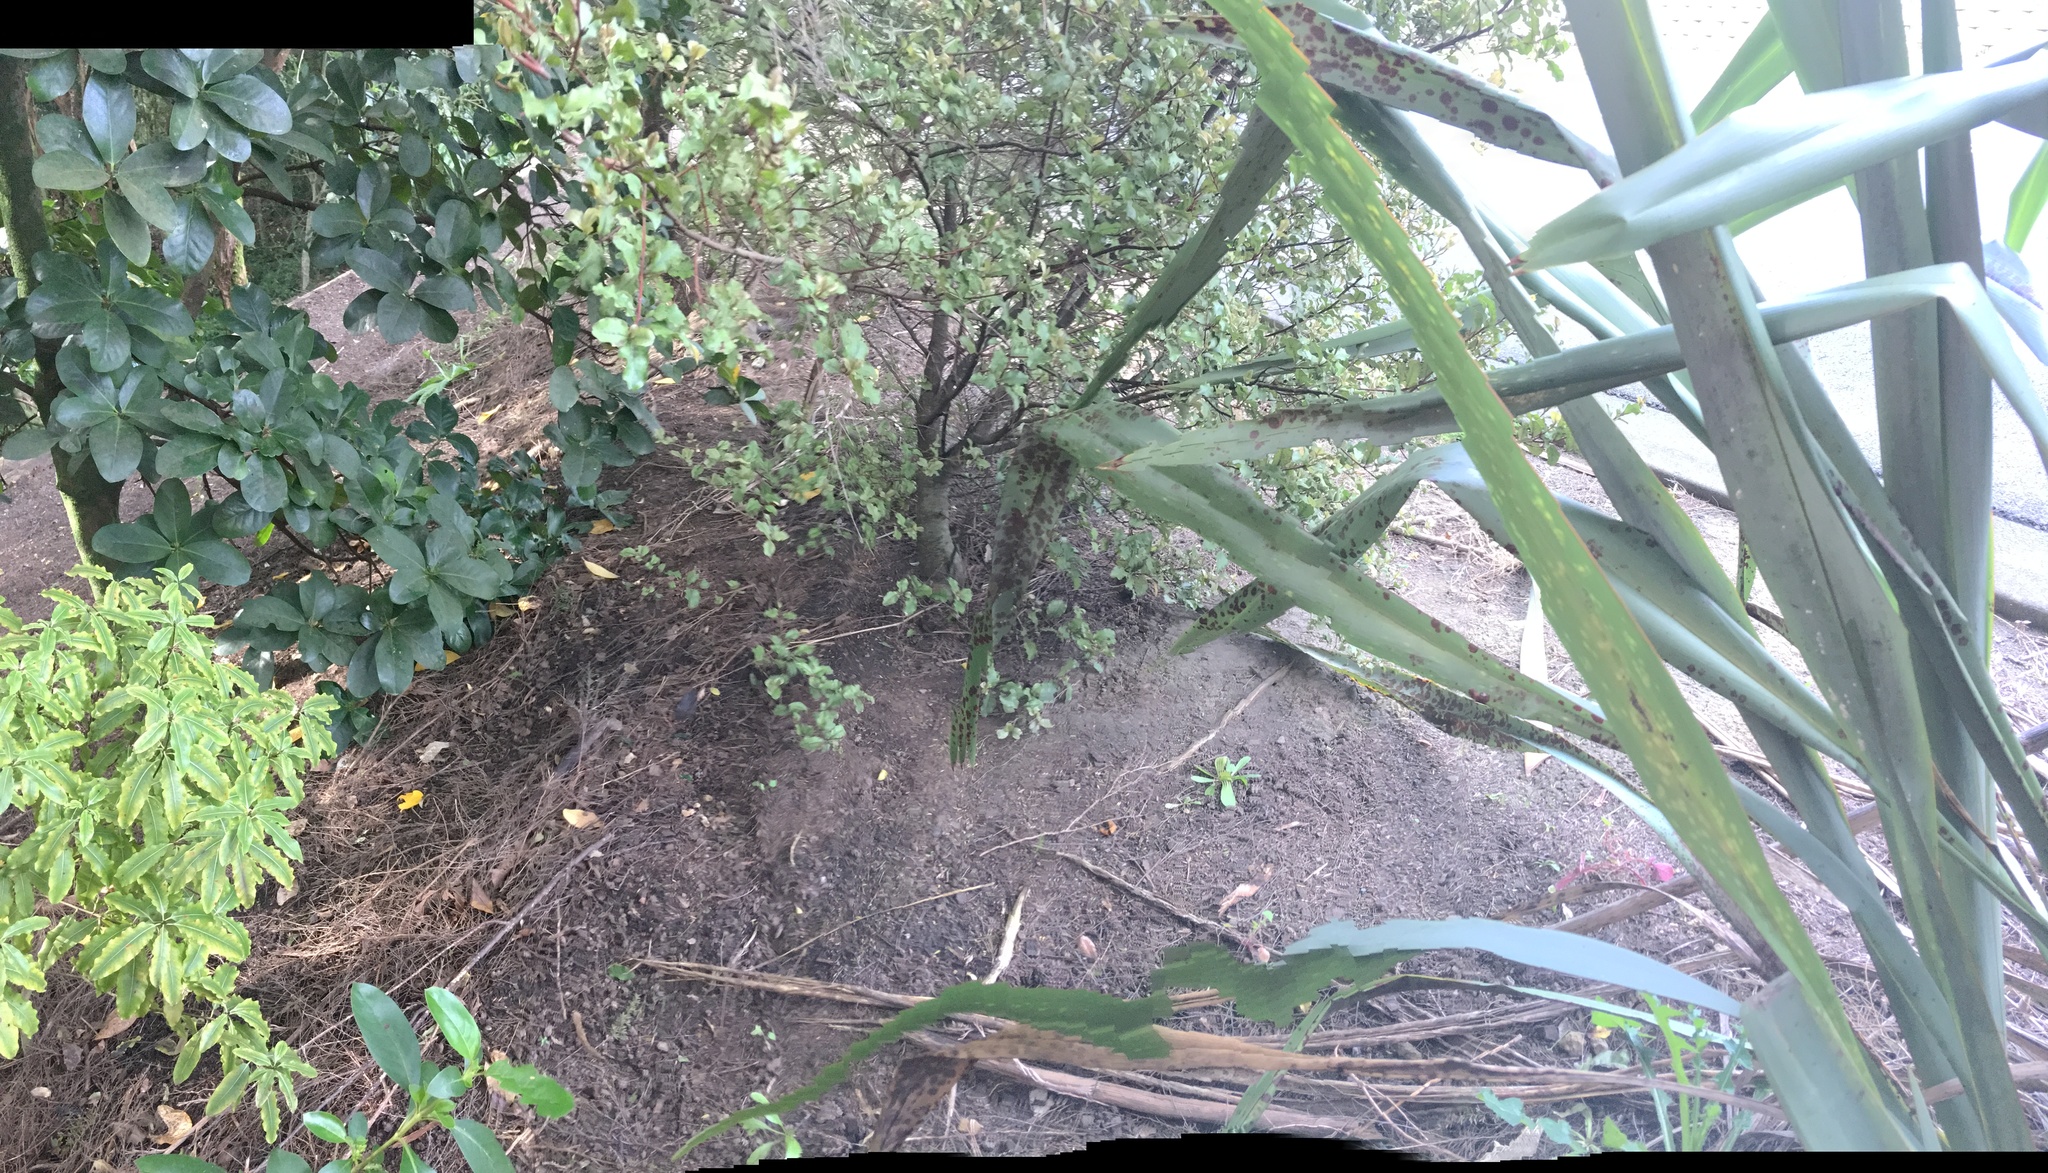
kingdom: Plantae
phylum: Tracheophyta
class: Magnoliopsida
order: Ericales
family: Primulaceae
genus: Myrsine
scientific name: Myrsine australis
